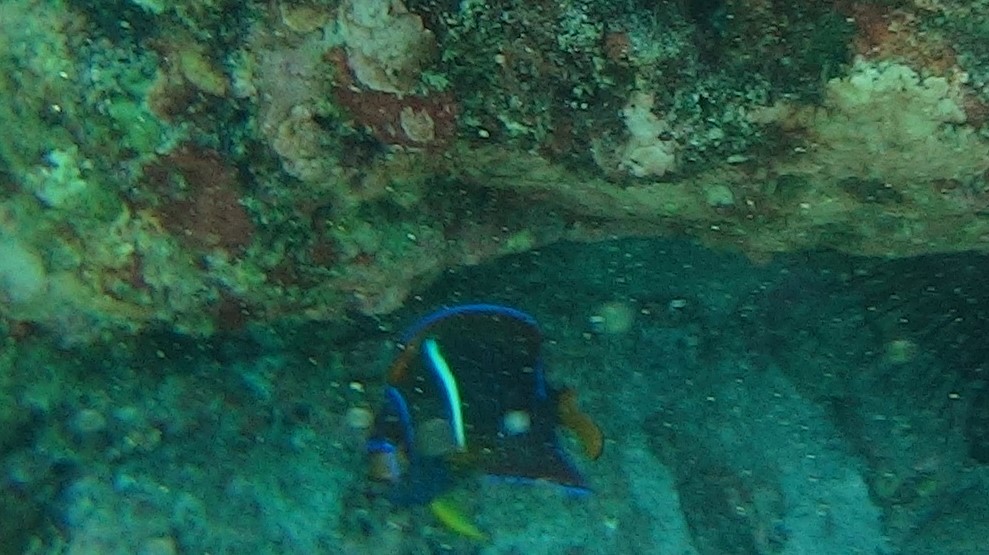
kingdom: Animalia
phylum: Chordata
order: Perciformes
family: Pomacanthidae
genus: Holacanthus
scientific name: Holacanthus passer
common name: King angelfish
